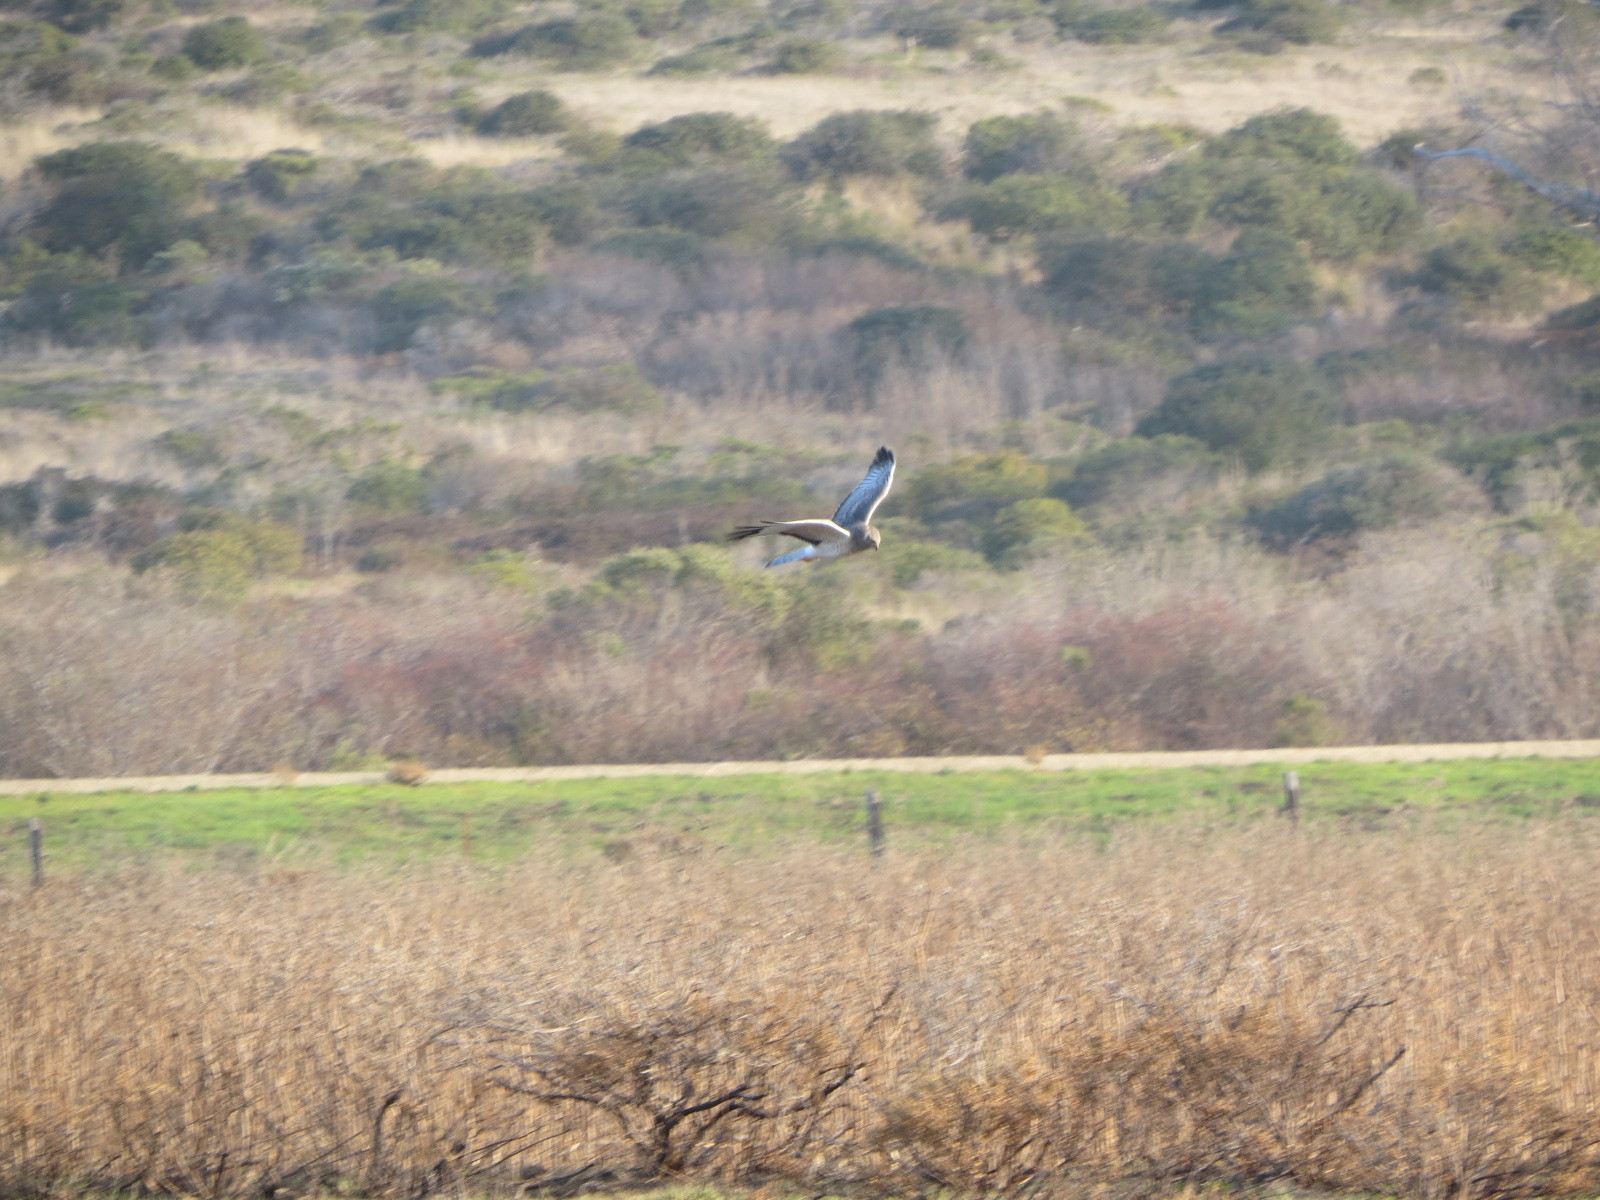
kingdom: Animalia
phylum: Chordata
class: Aves
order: Accipitriformes
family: Accipitridae
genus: Circus
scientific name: Circus cyaneus
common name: Hen harrier
